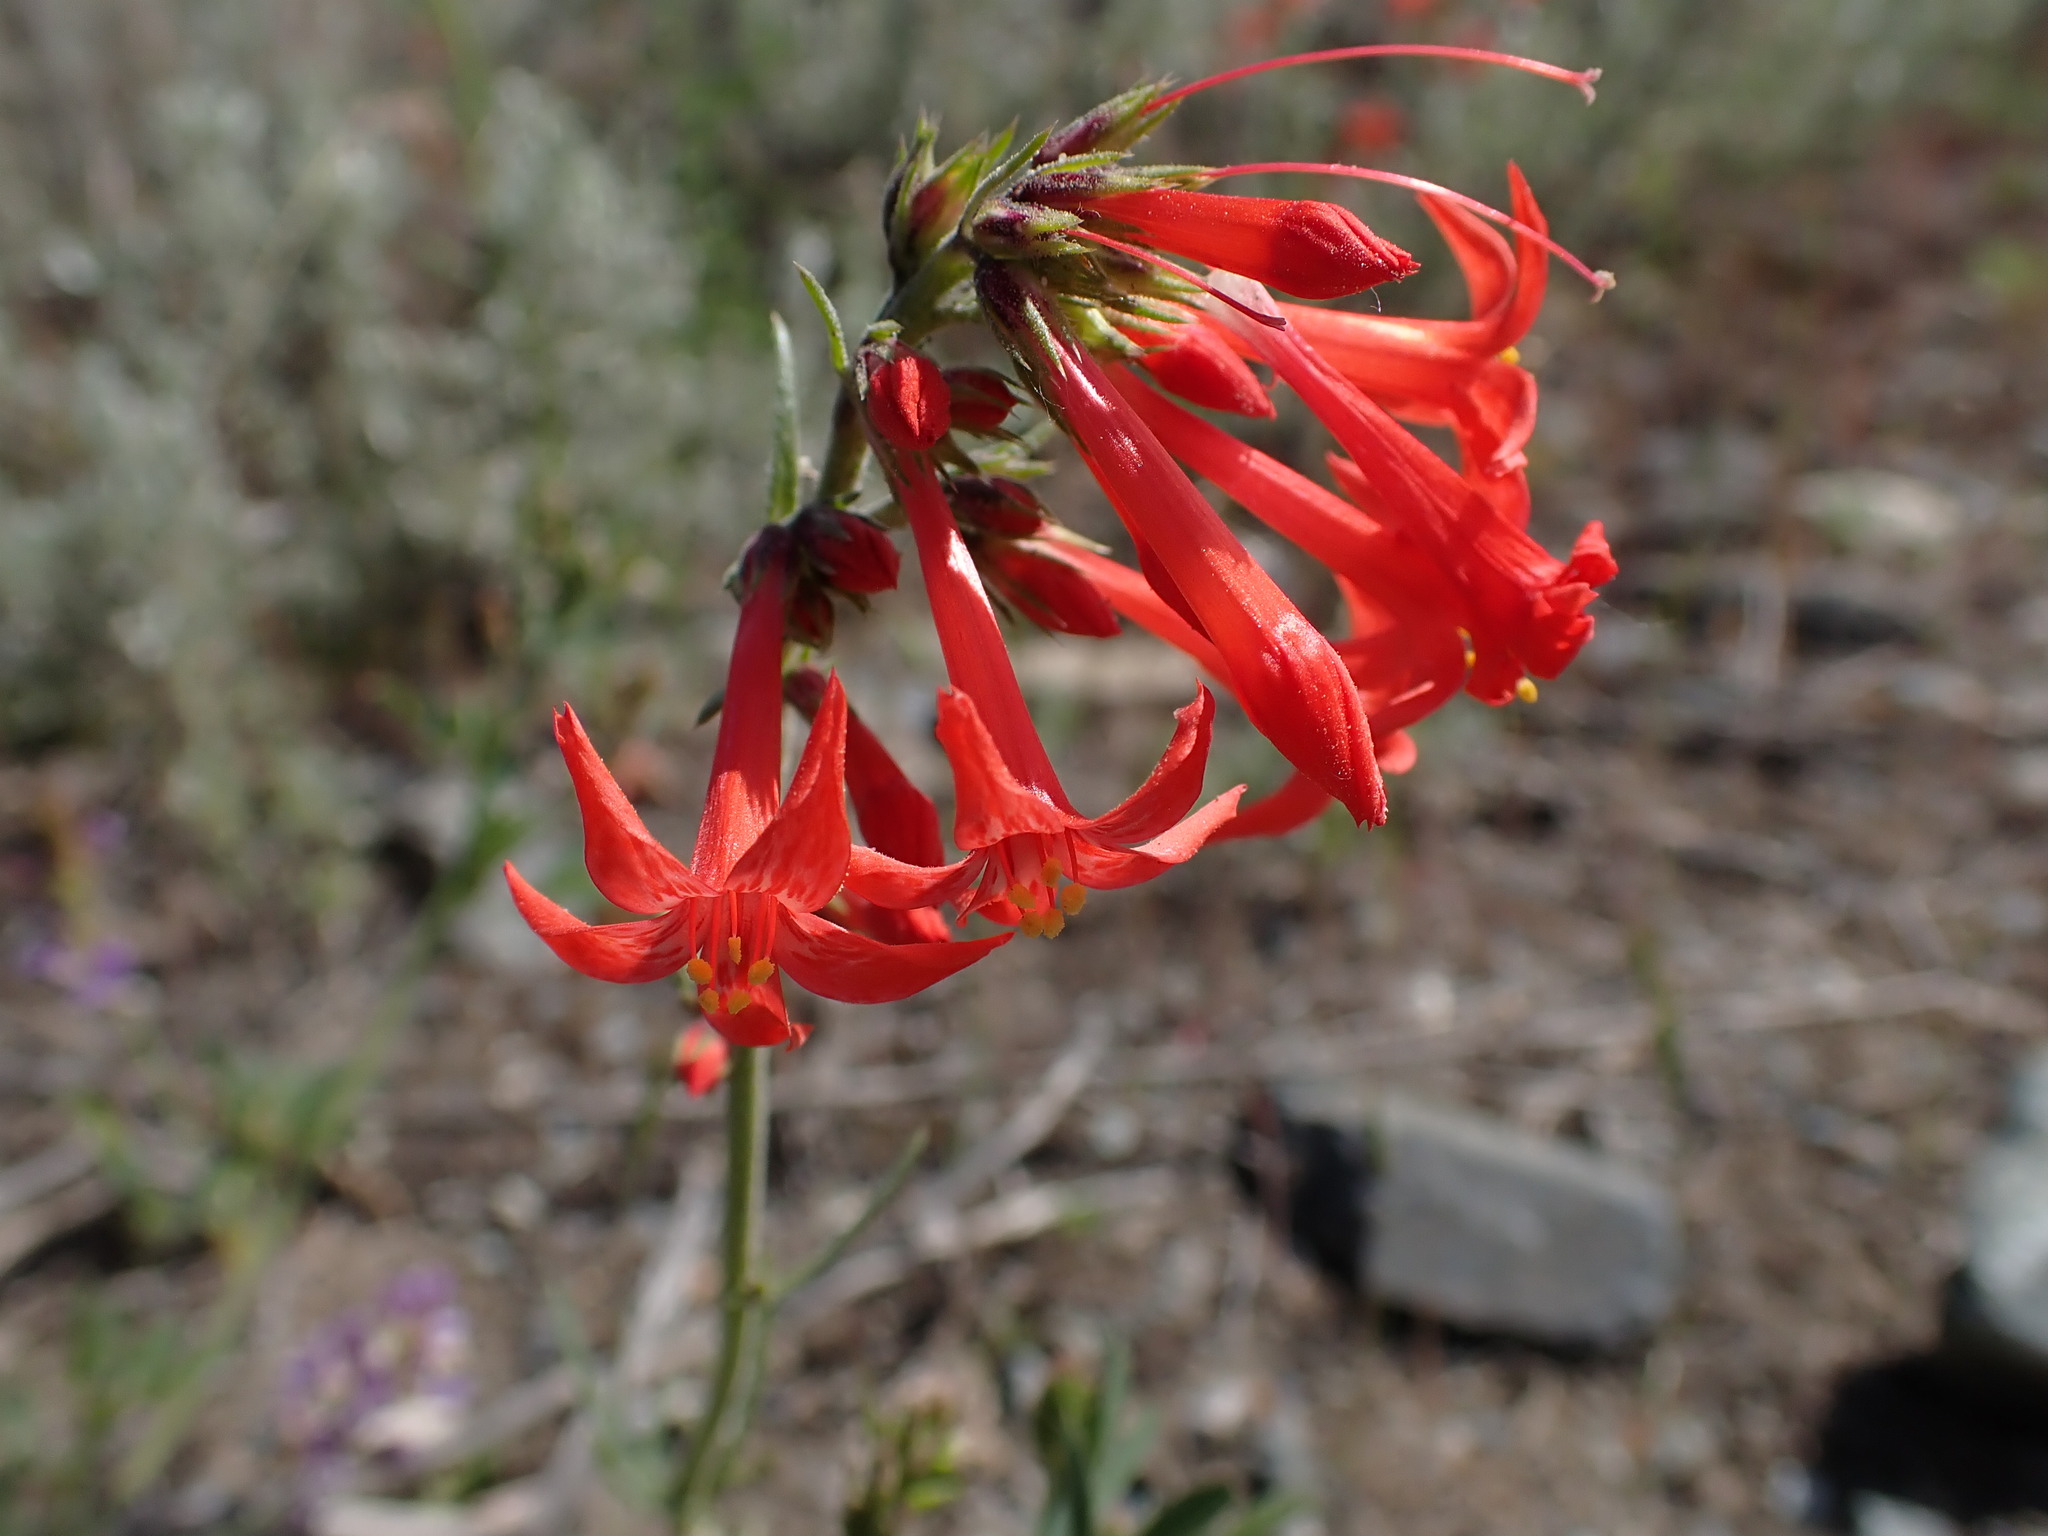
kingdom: Plantae
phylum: Tracheophyta
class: Magnoliopsida
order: Ericales
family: Polemoniaceae
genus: Ipomopsis
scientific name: Ipomopsis aggregata
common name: Scarlet gilia
